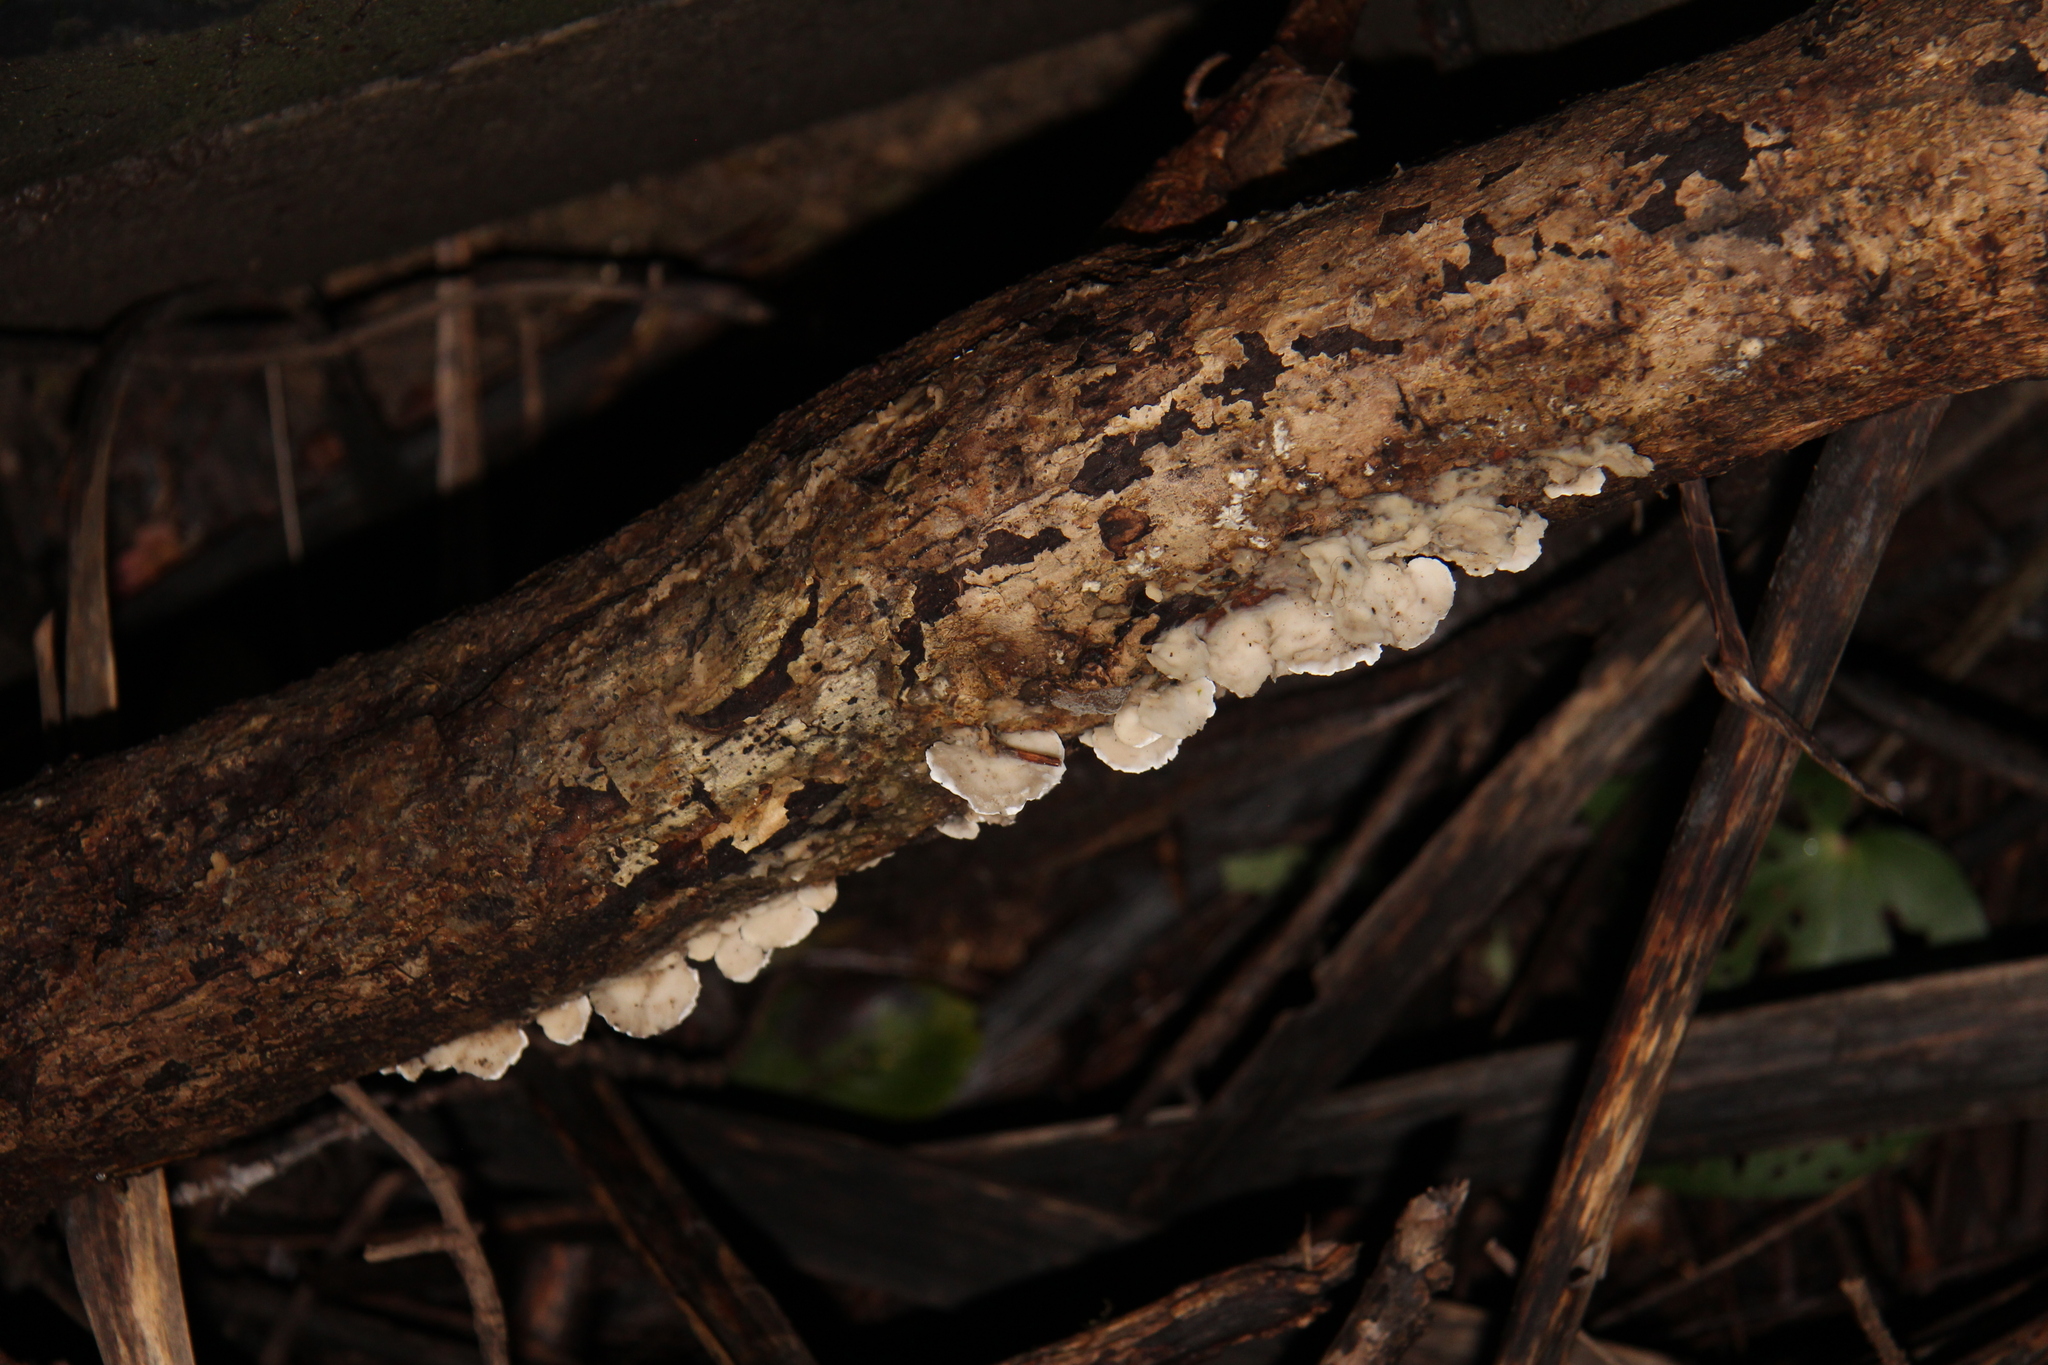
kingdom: Fungi
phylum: Basidiomycota
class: Agaricomycetes
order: Polyporales
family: Irpicaceae
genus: Vitreoporus
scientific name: Vitreoporus dichrous
